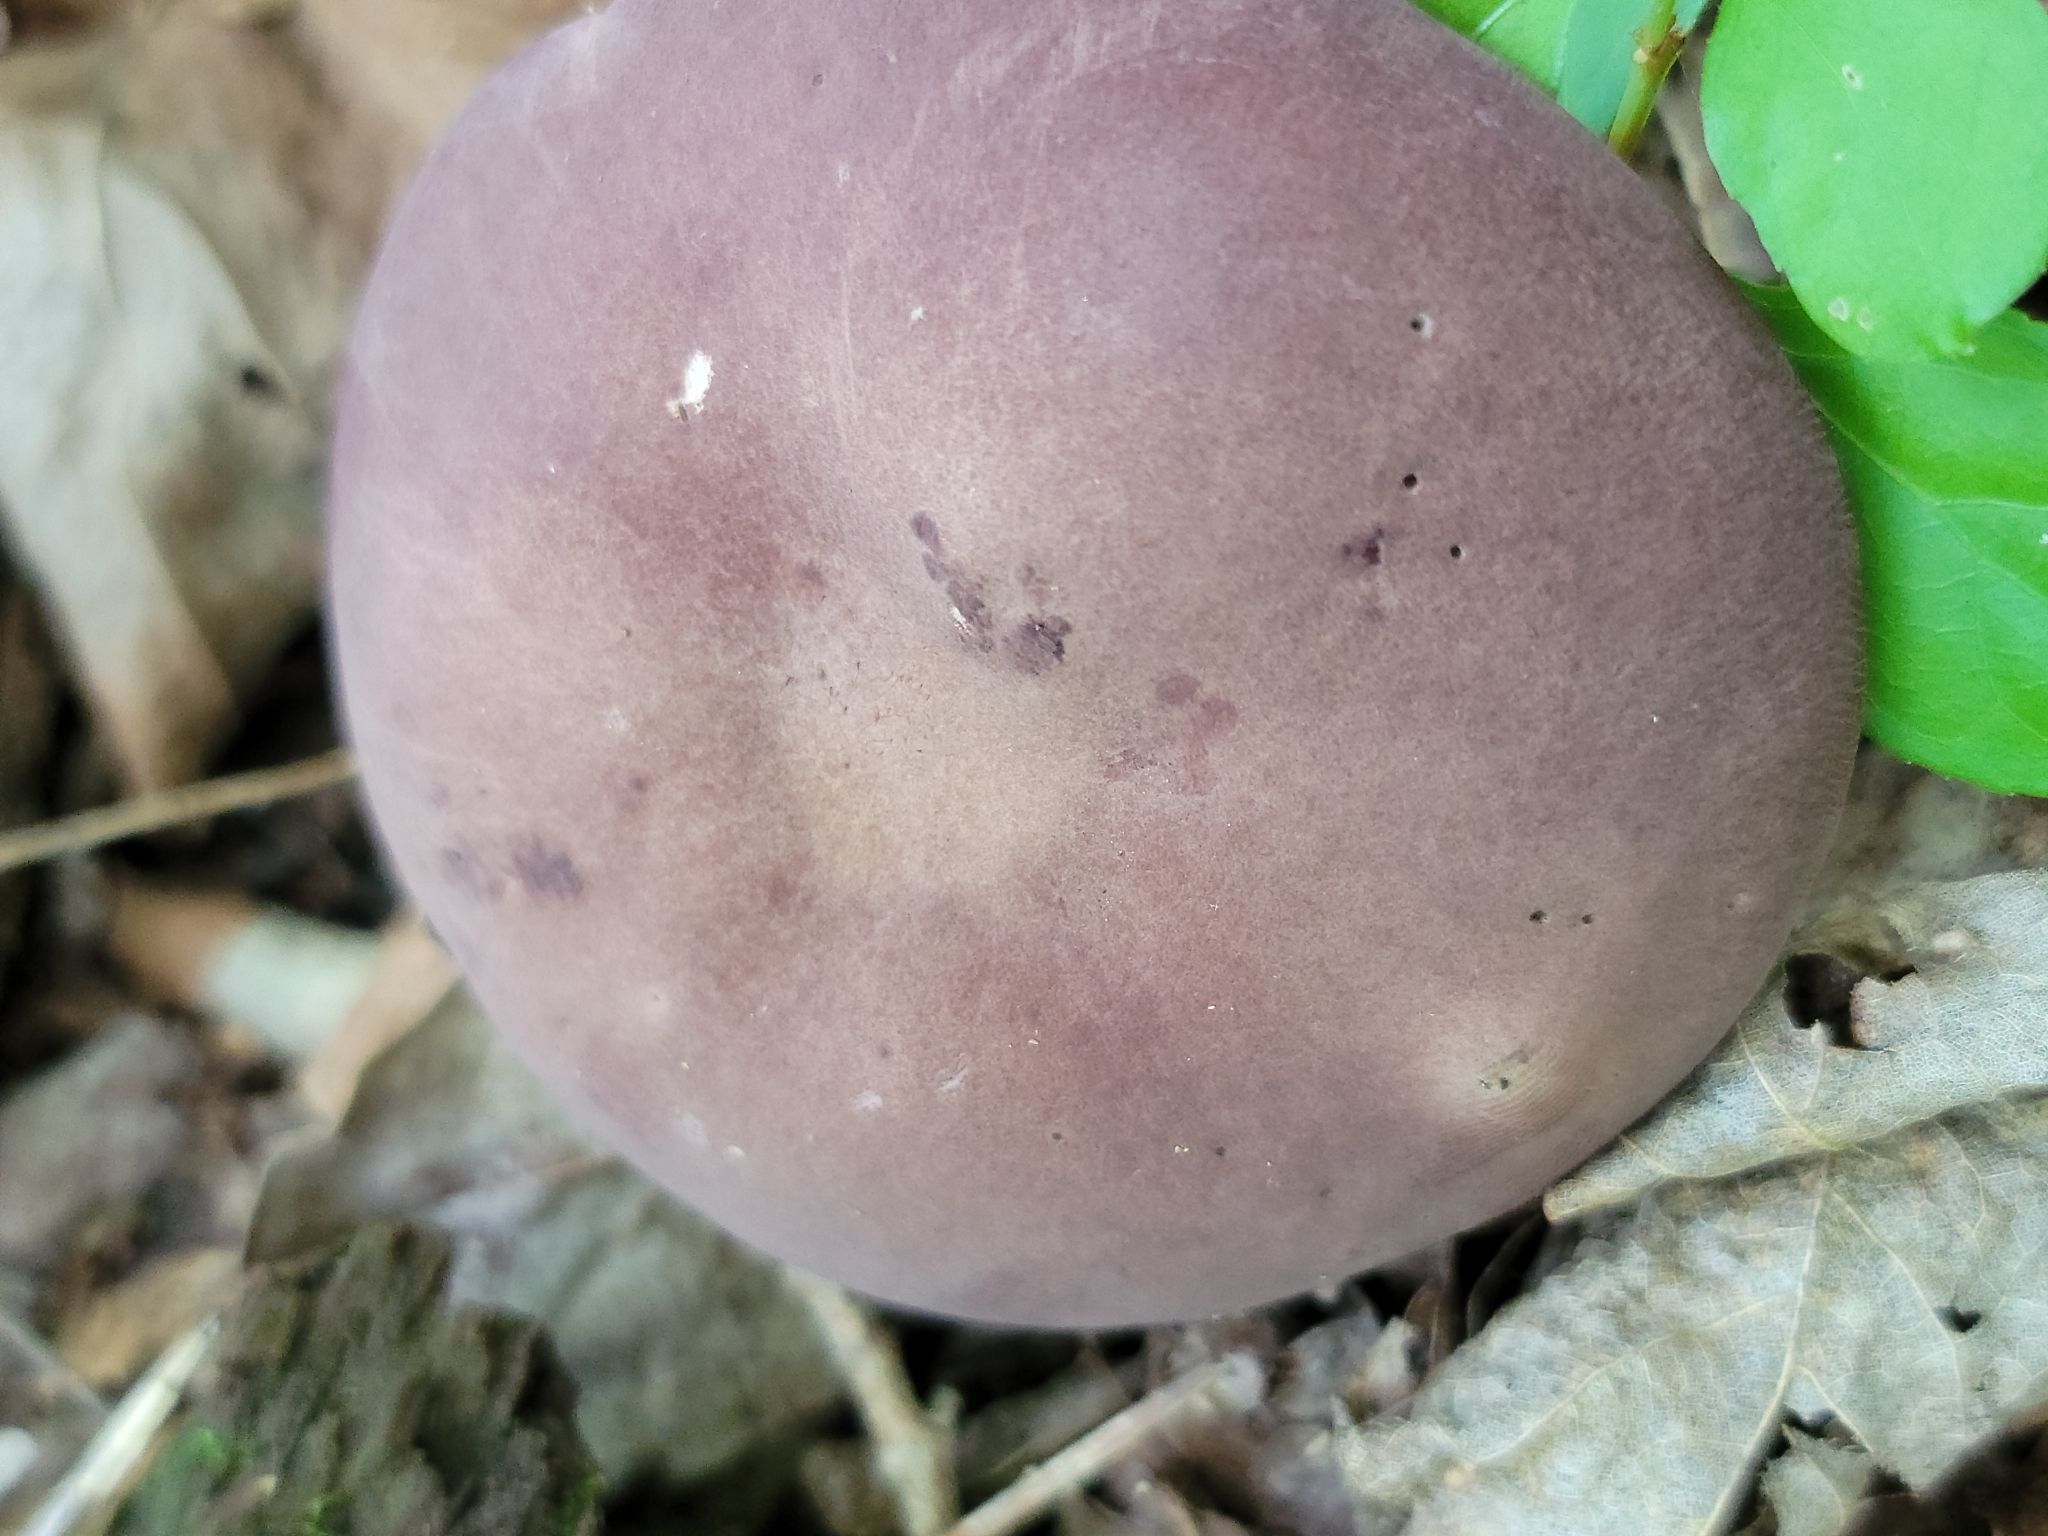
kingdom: Fungi
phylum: Basidiomycota
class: Agaricomycetes
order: Boletales
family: Boletaceae
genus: Tylopilus
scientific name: Tylopilus rubrobrunneus
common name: Reddish brown bitter bolete
